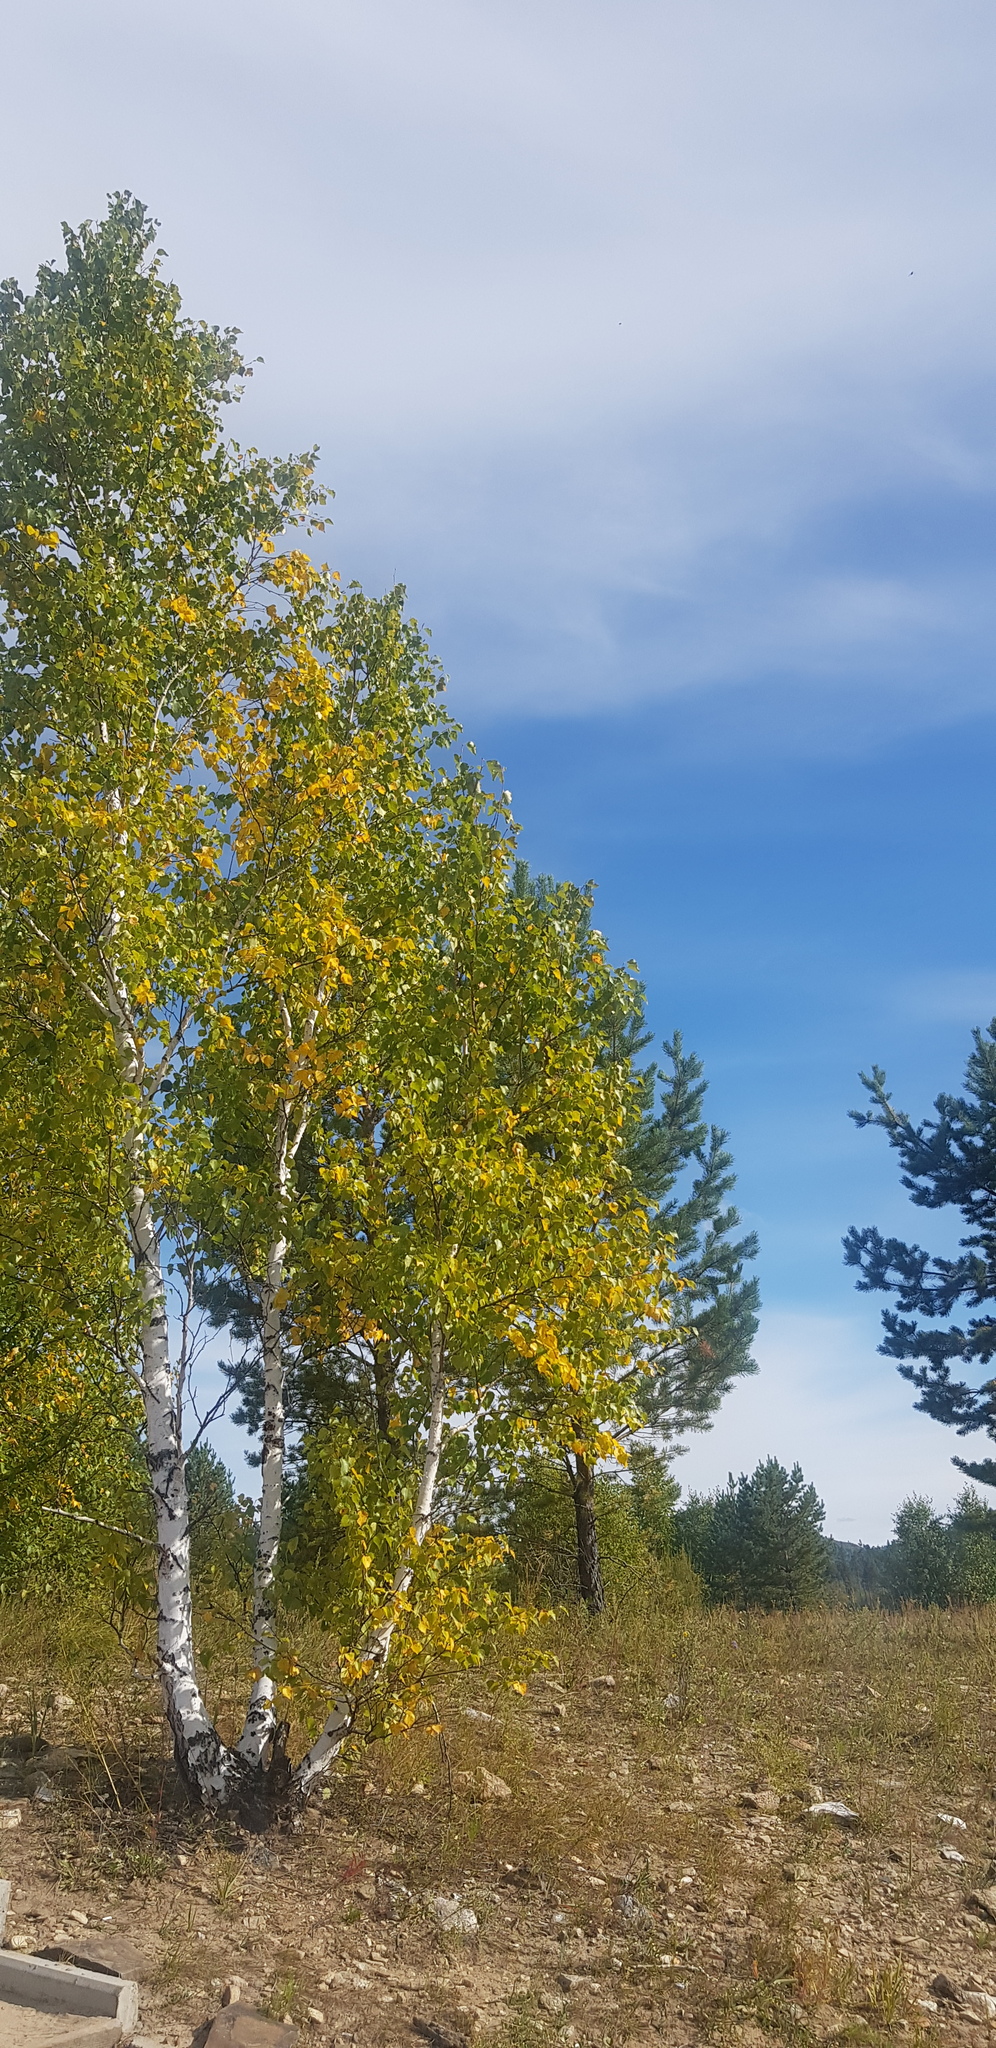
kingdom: Plantae
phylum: Tracheophyta
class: Magnoliopsida
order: Fagales
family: Betulaceae
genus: Betula
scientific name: Betula pendula
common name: Silver birch
